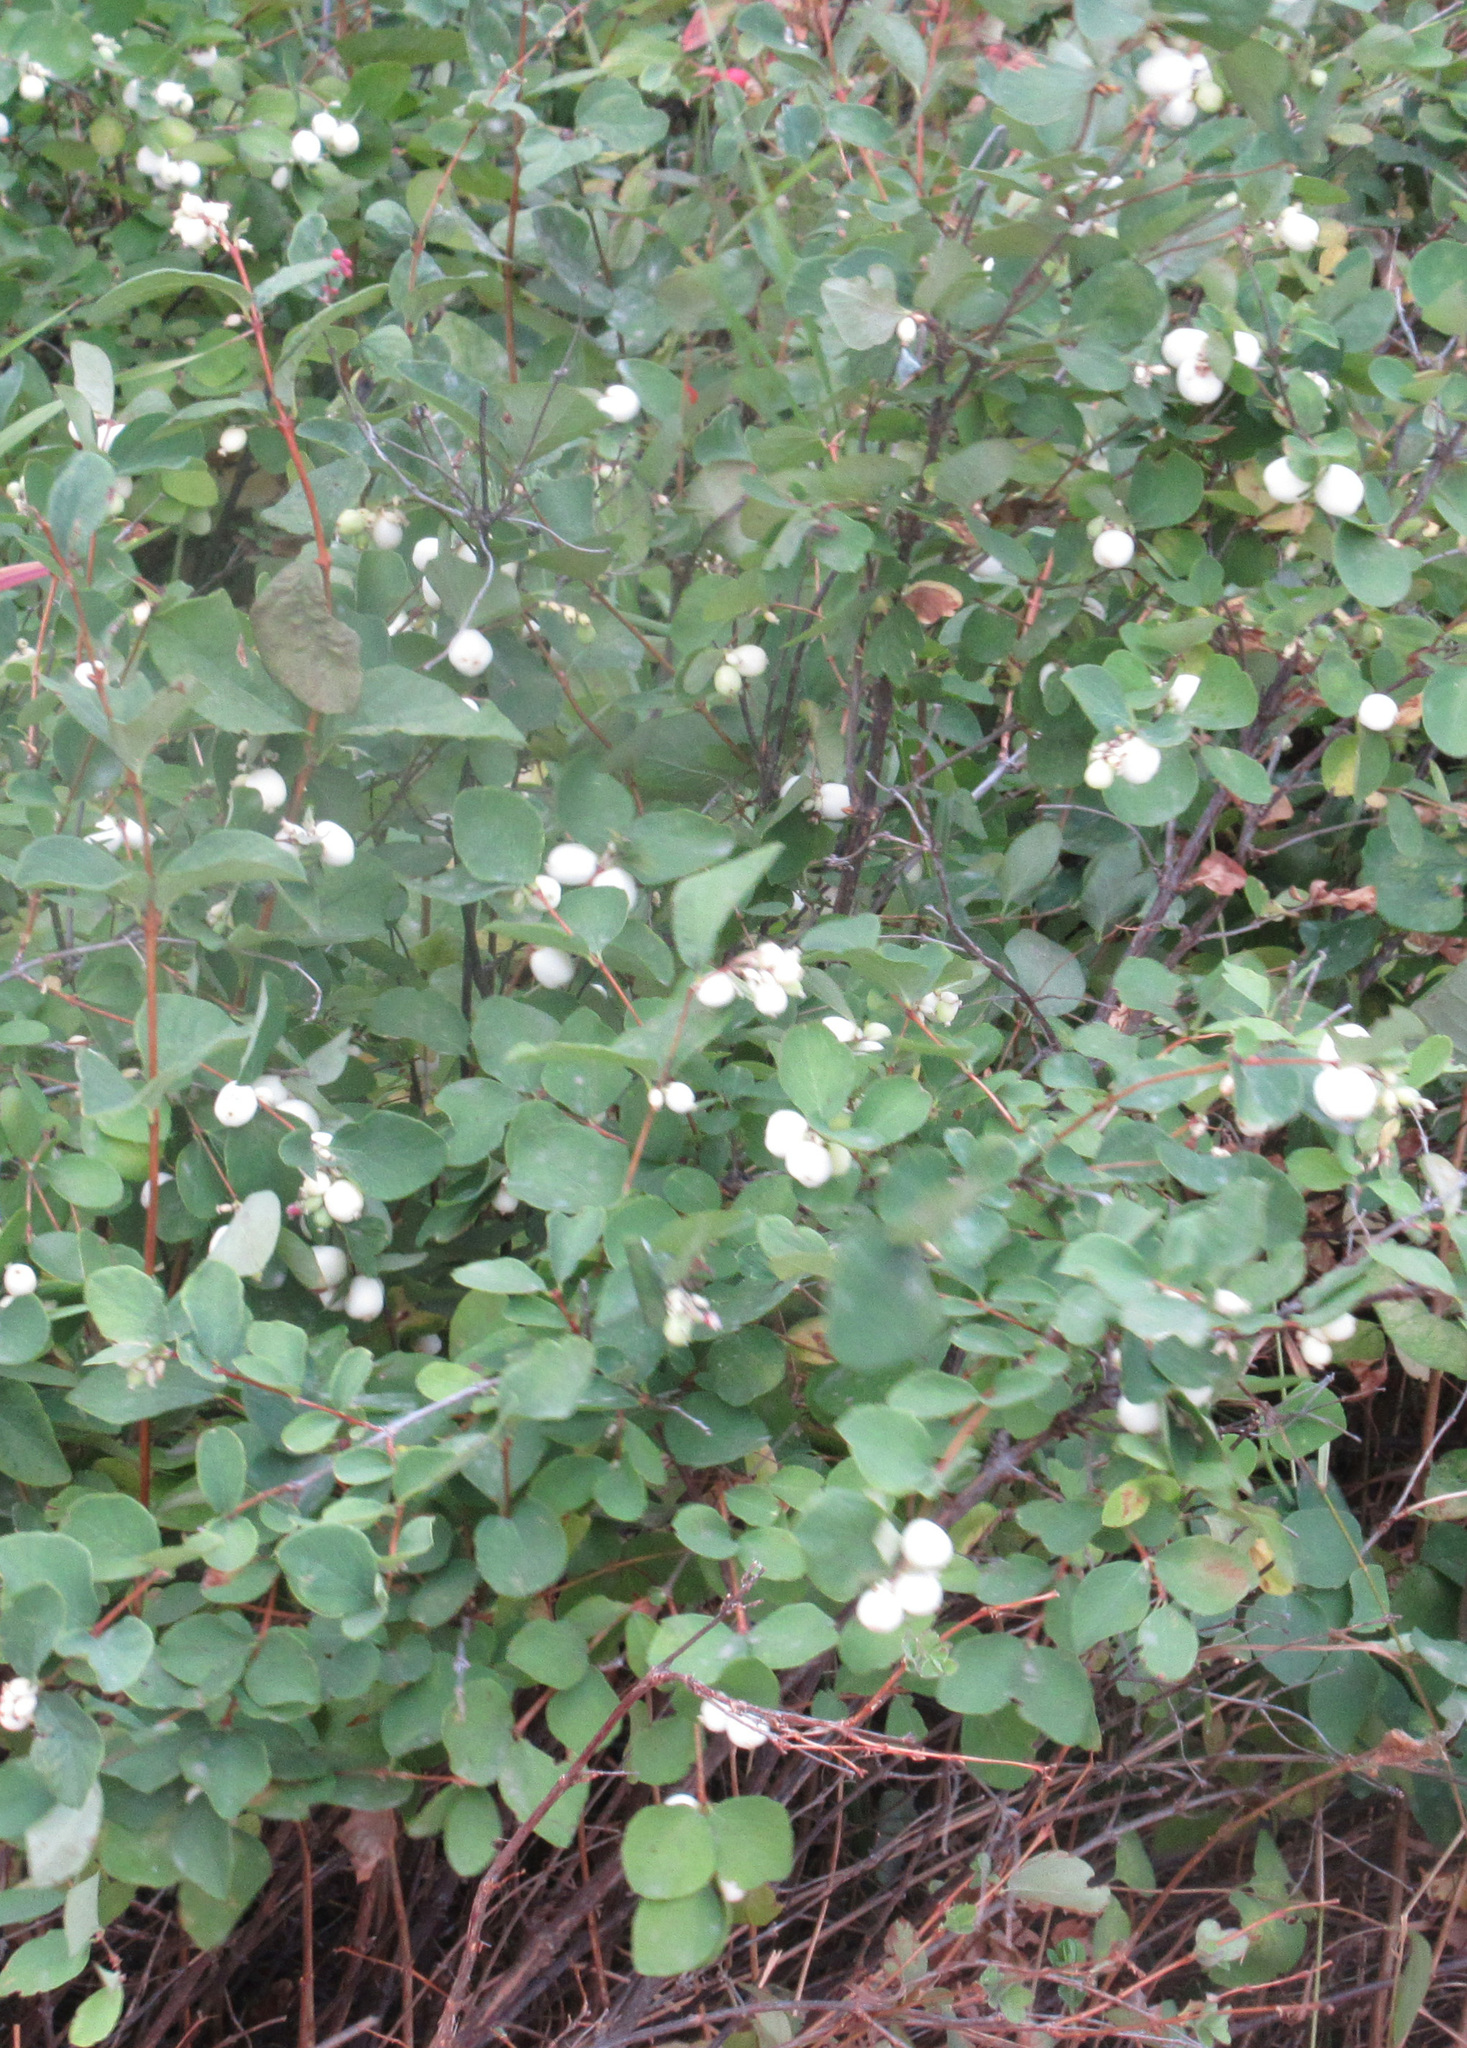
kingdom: Plantae
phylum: Tracheophyta
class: Magnoliopsida
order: Dipsacales
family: Caprifoliaceae
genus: Symphoricarpos
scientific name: Symphoricarpos albus
